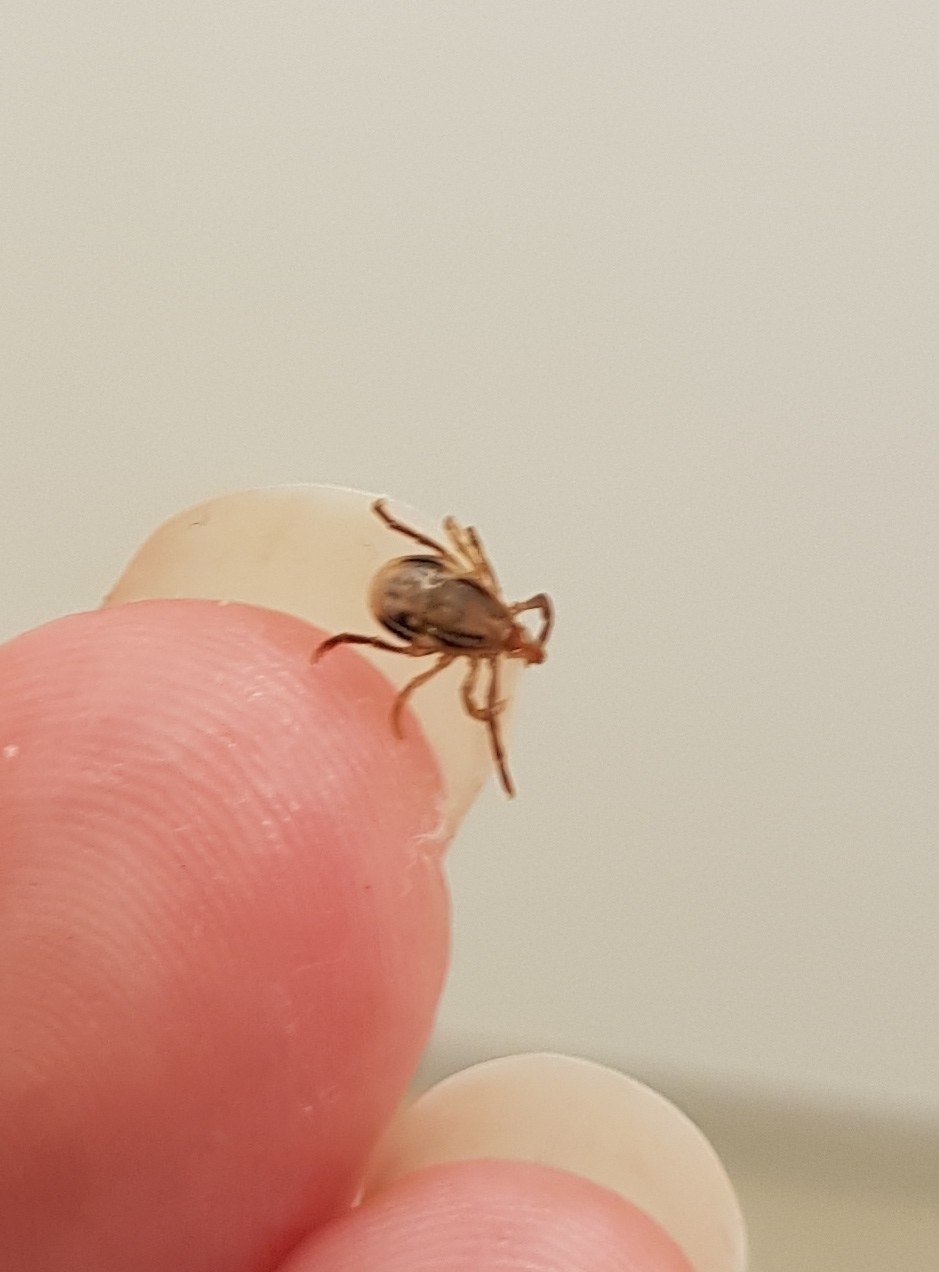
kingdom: Animalia
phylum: Arthropoda
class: Arachnida
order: Ixodida
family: Ixodidae
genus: Ixodes
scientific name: Ixodes holocyclus
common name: Australian paralysis tick
